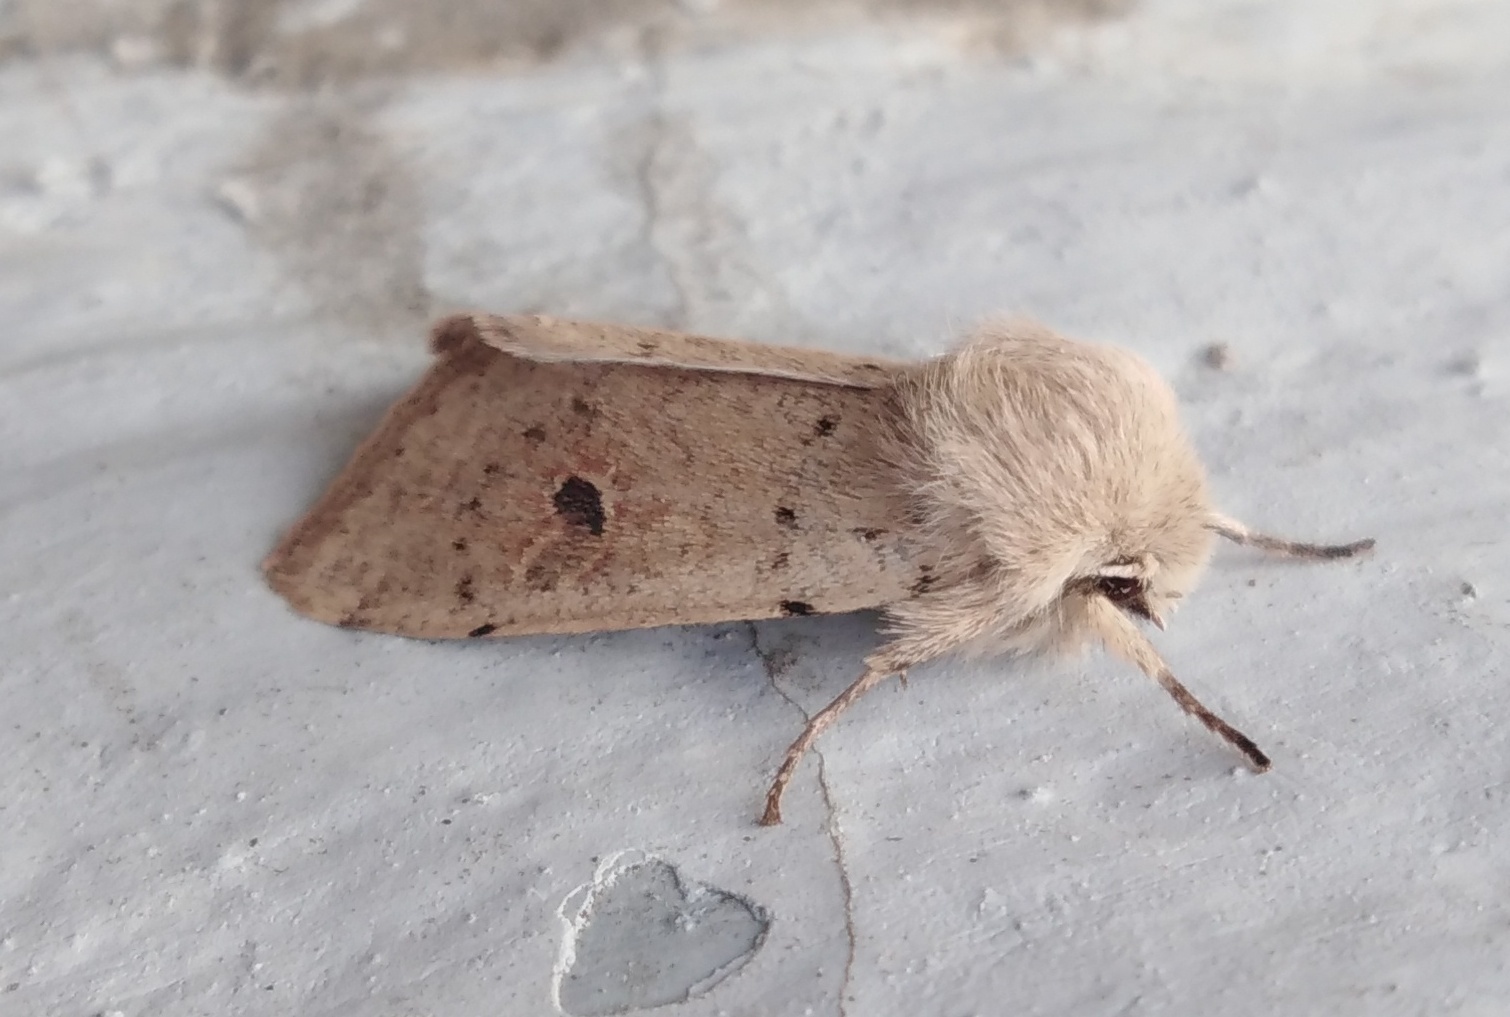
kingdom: Animalia
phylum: Arthropoda
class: Insecta
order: Lepidoptera
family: Noctuidae
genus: Orthosia
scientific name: Orthosia cruda
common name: Small quaker
